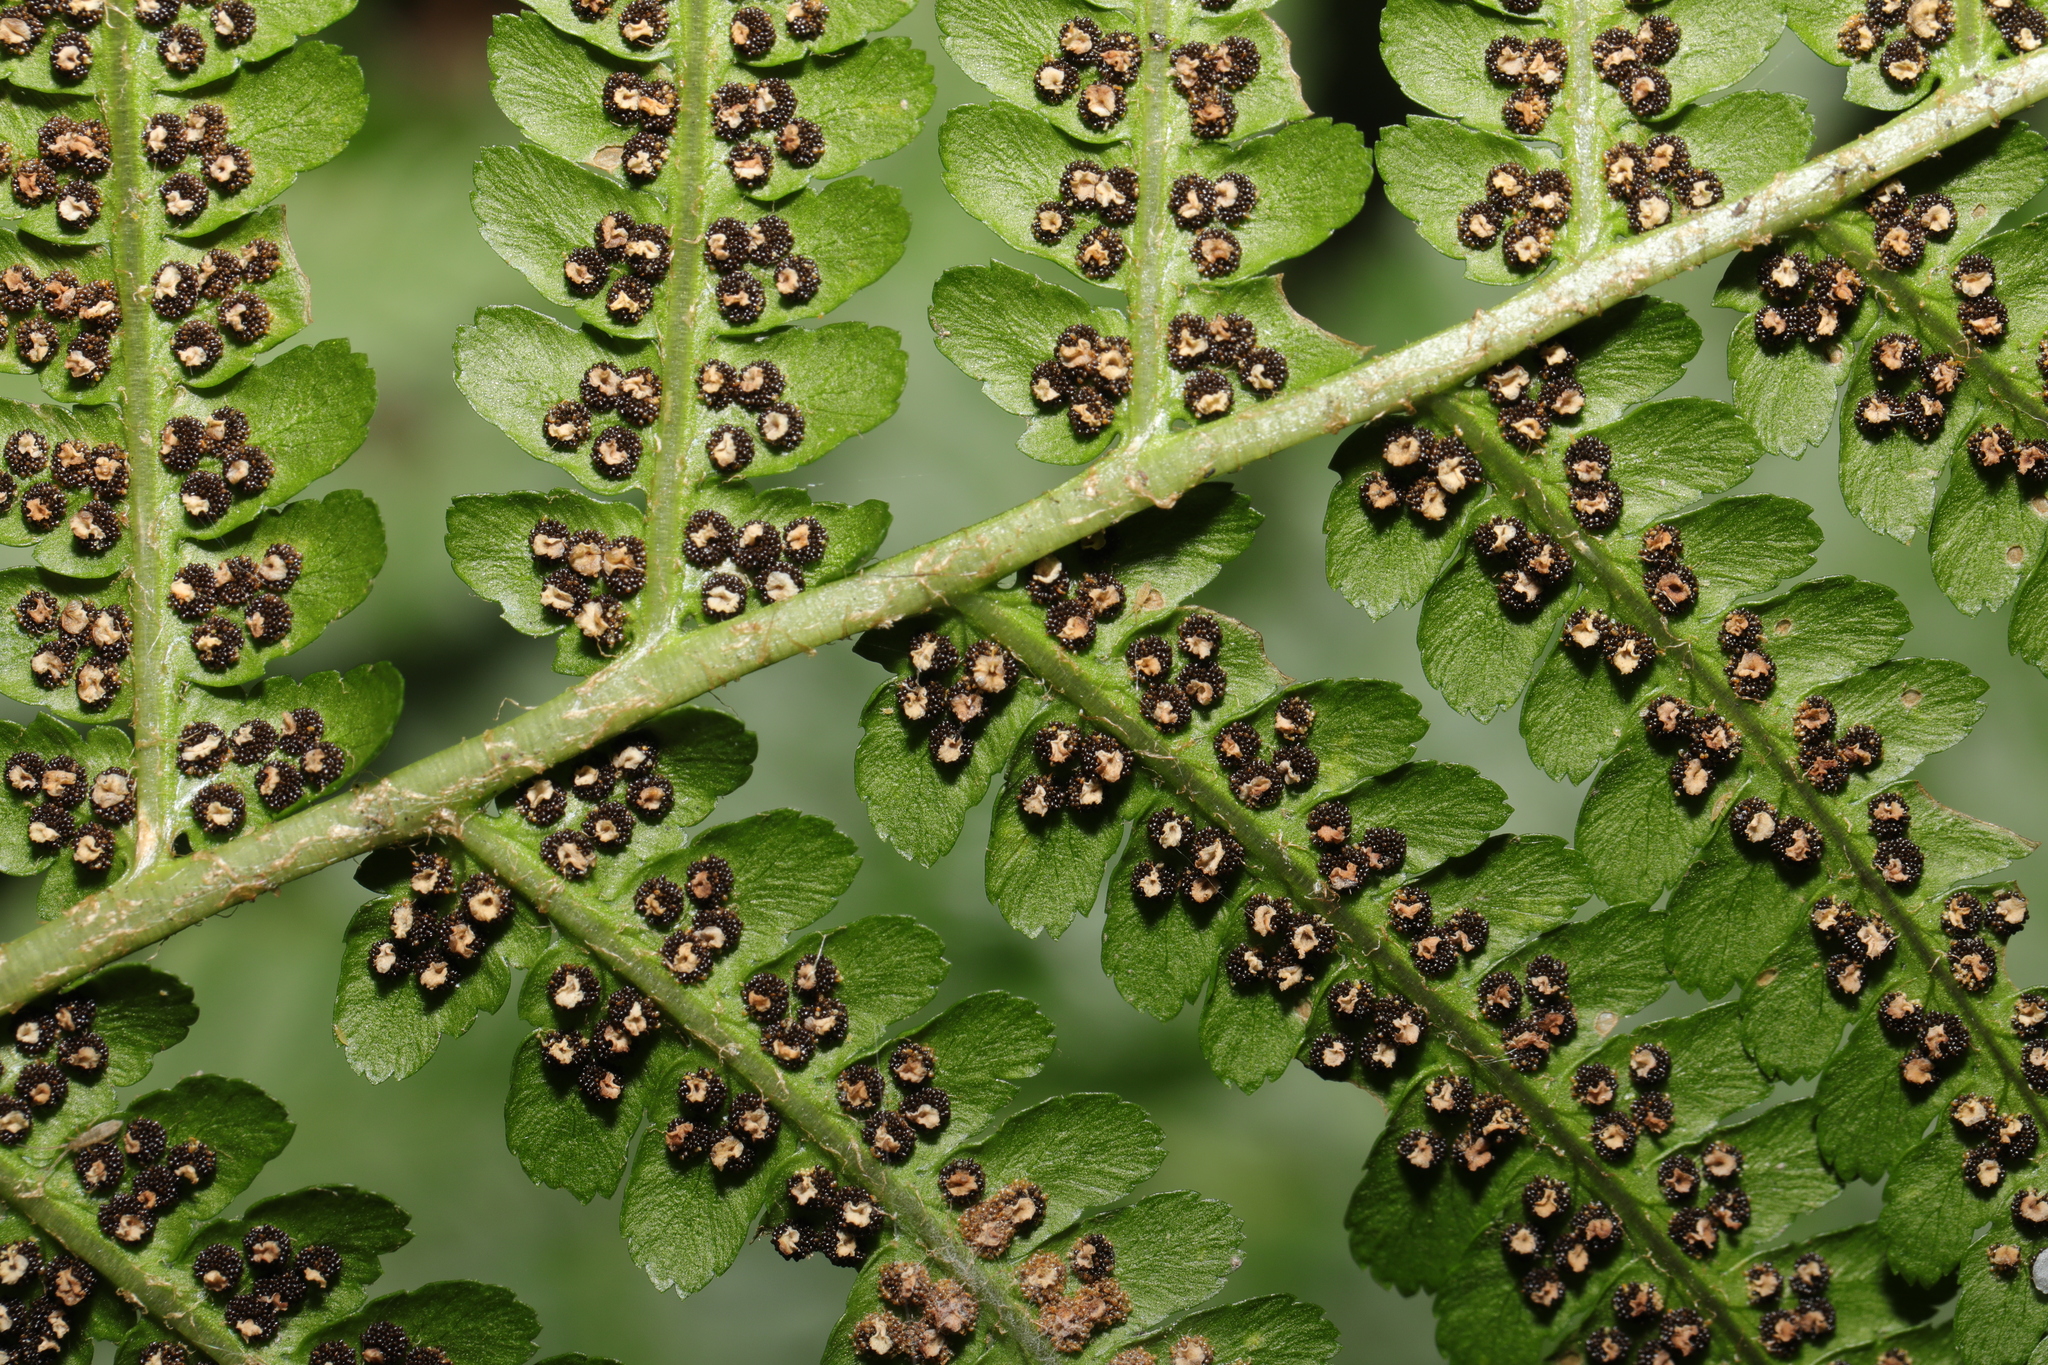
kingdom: Plantae
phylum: Tracheophyta
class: Polypodiopsida
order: Polypodiales
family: Dryopteridaceae
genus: Dryopteris
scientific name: Dryopteris filix-mas
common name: Male fern
